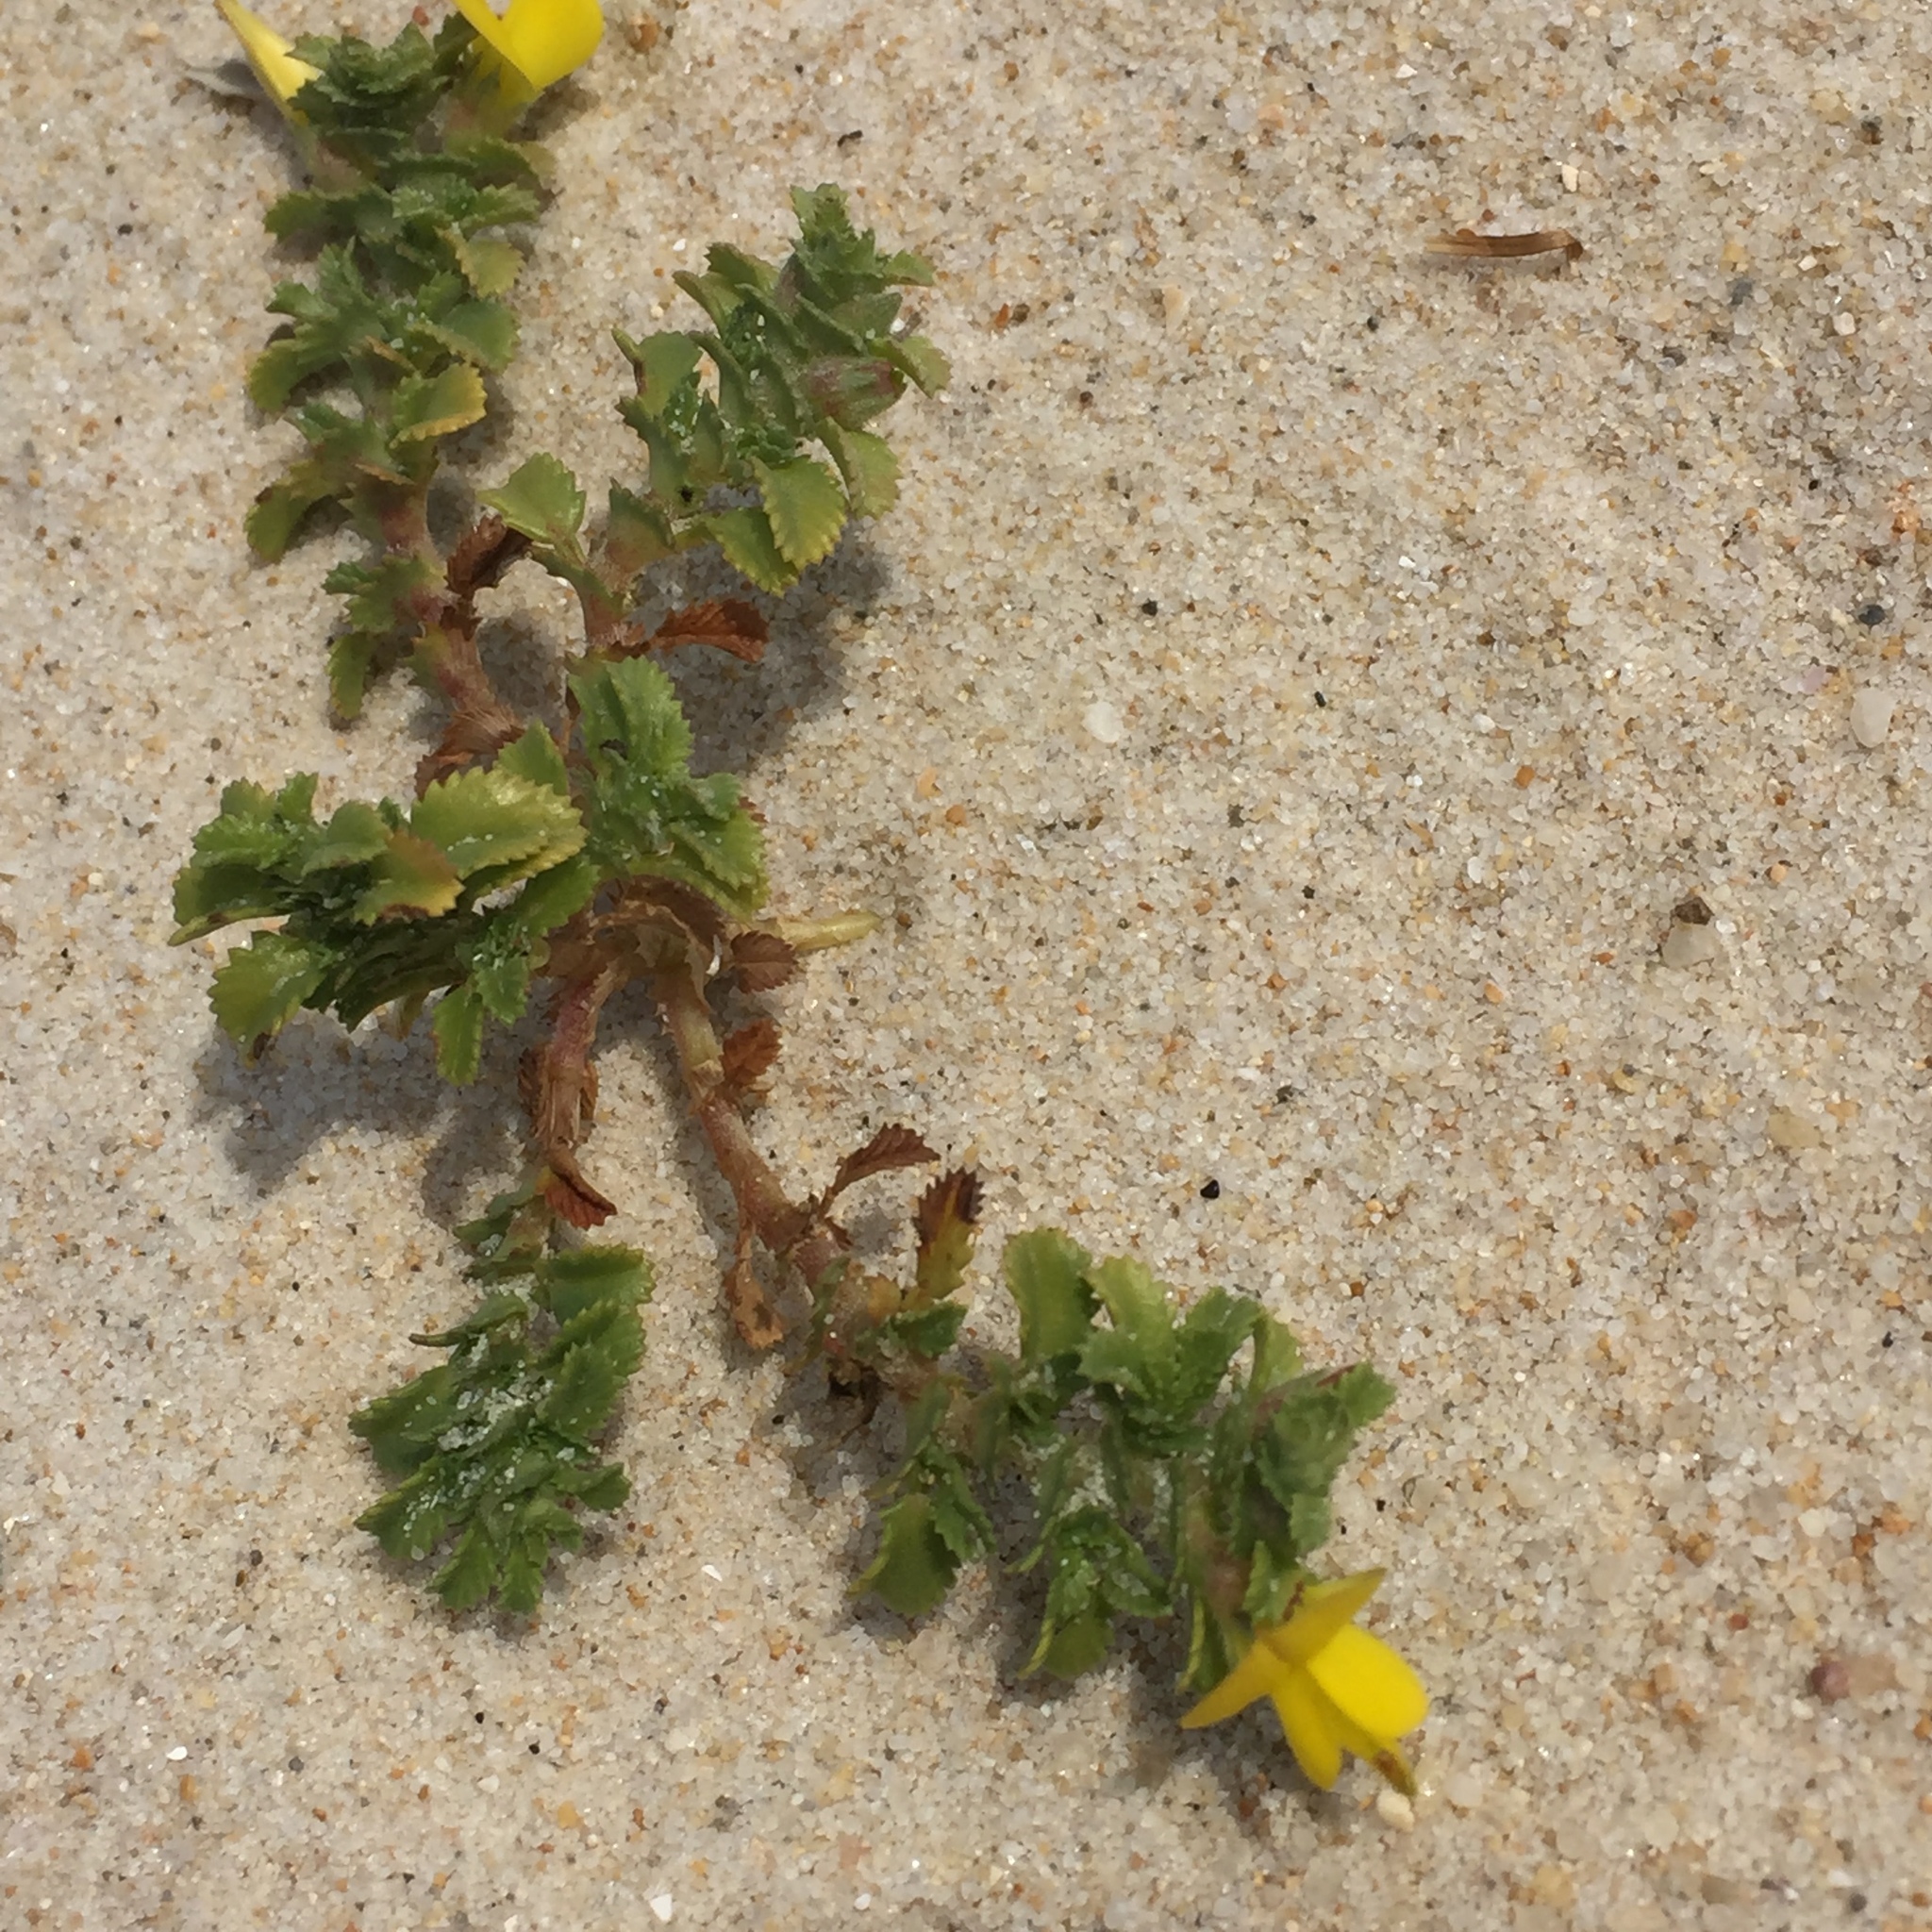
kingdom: Plantae
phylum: Tracheophyta
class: Magnoliopsida
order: Fabales
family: Fabaceae
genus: Ononis
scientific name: Ononis variegata
